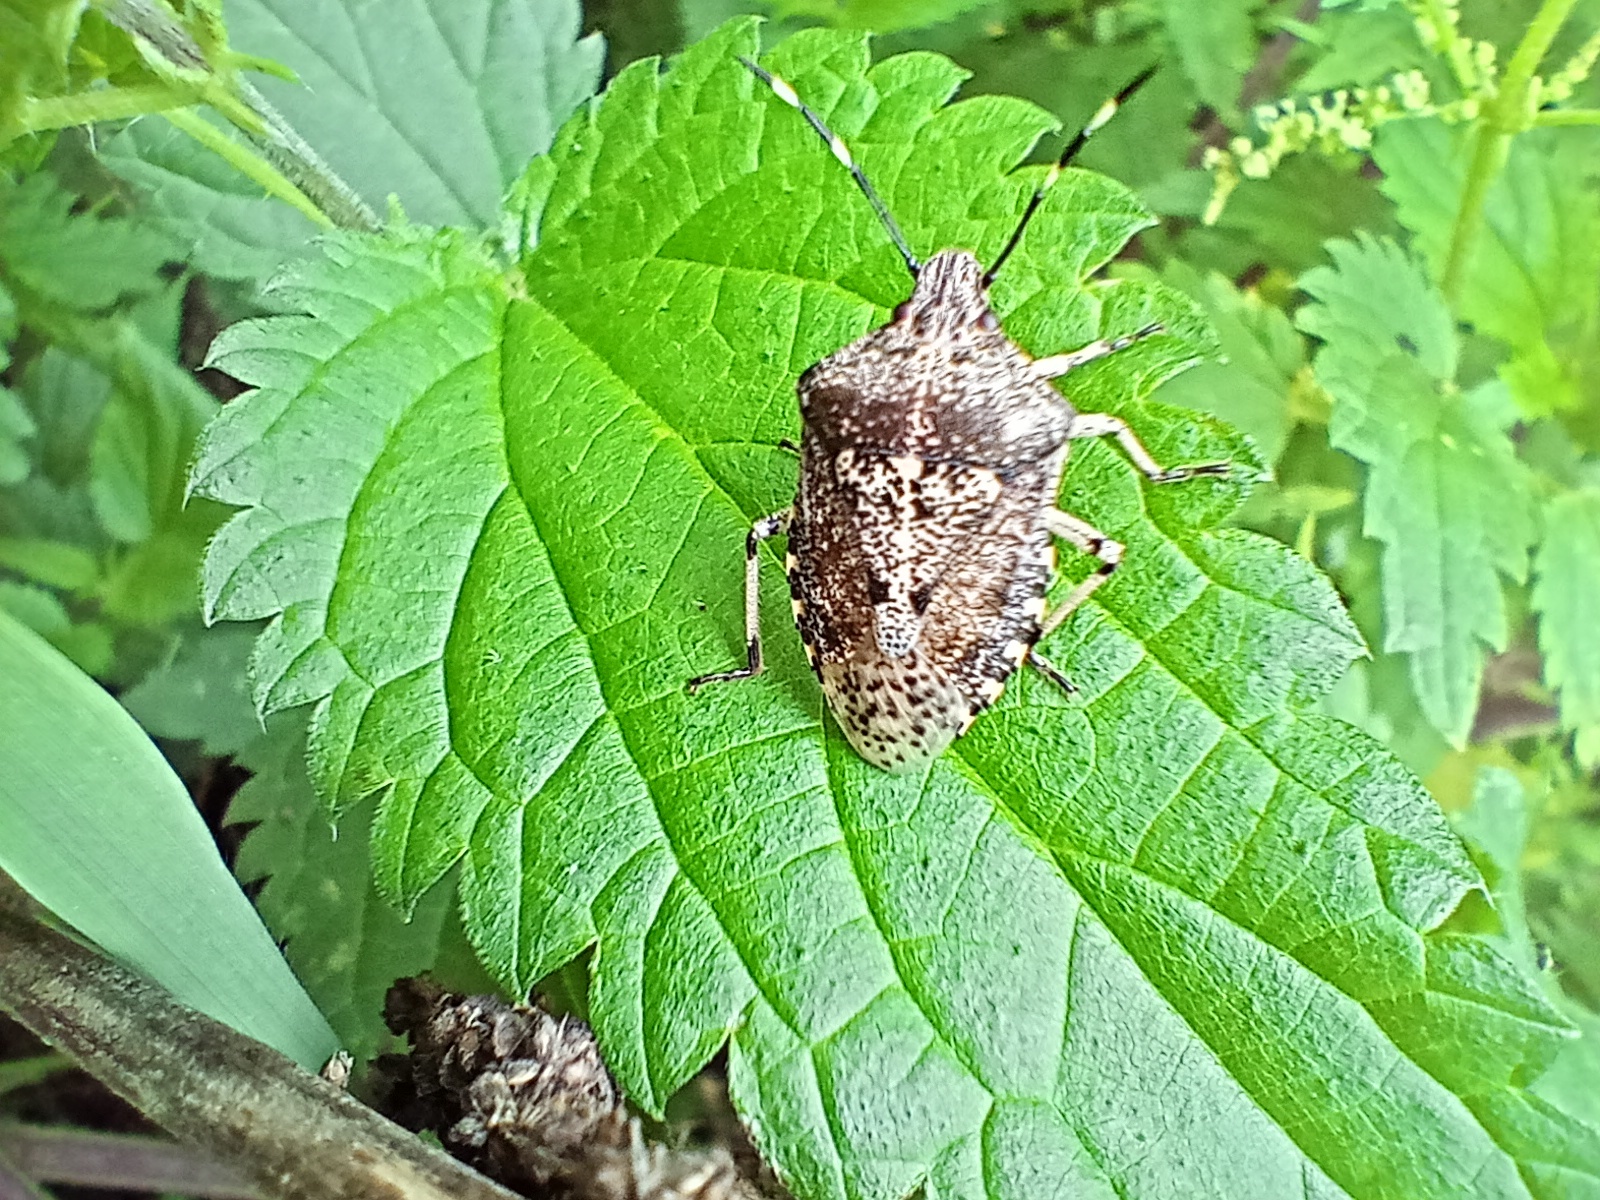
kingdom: Animalia
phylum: Arthropoda
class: Insecta
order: Hemiptera
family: Pentatomidae
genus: Rhaphigaster
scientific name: Rhaphigaster nebulosa
